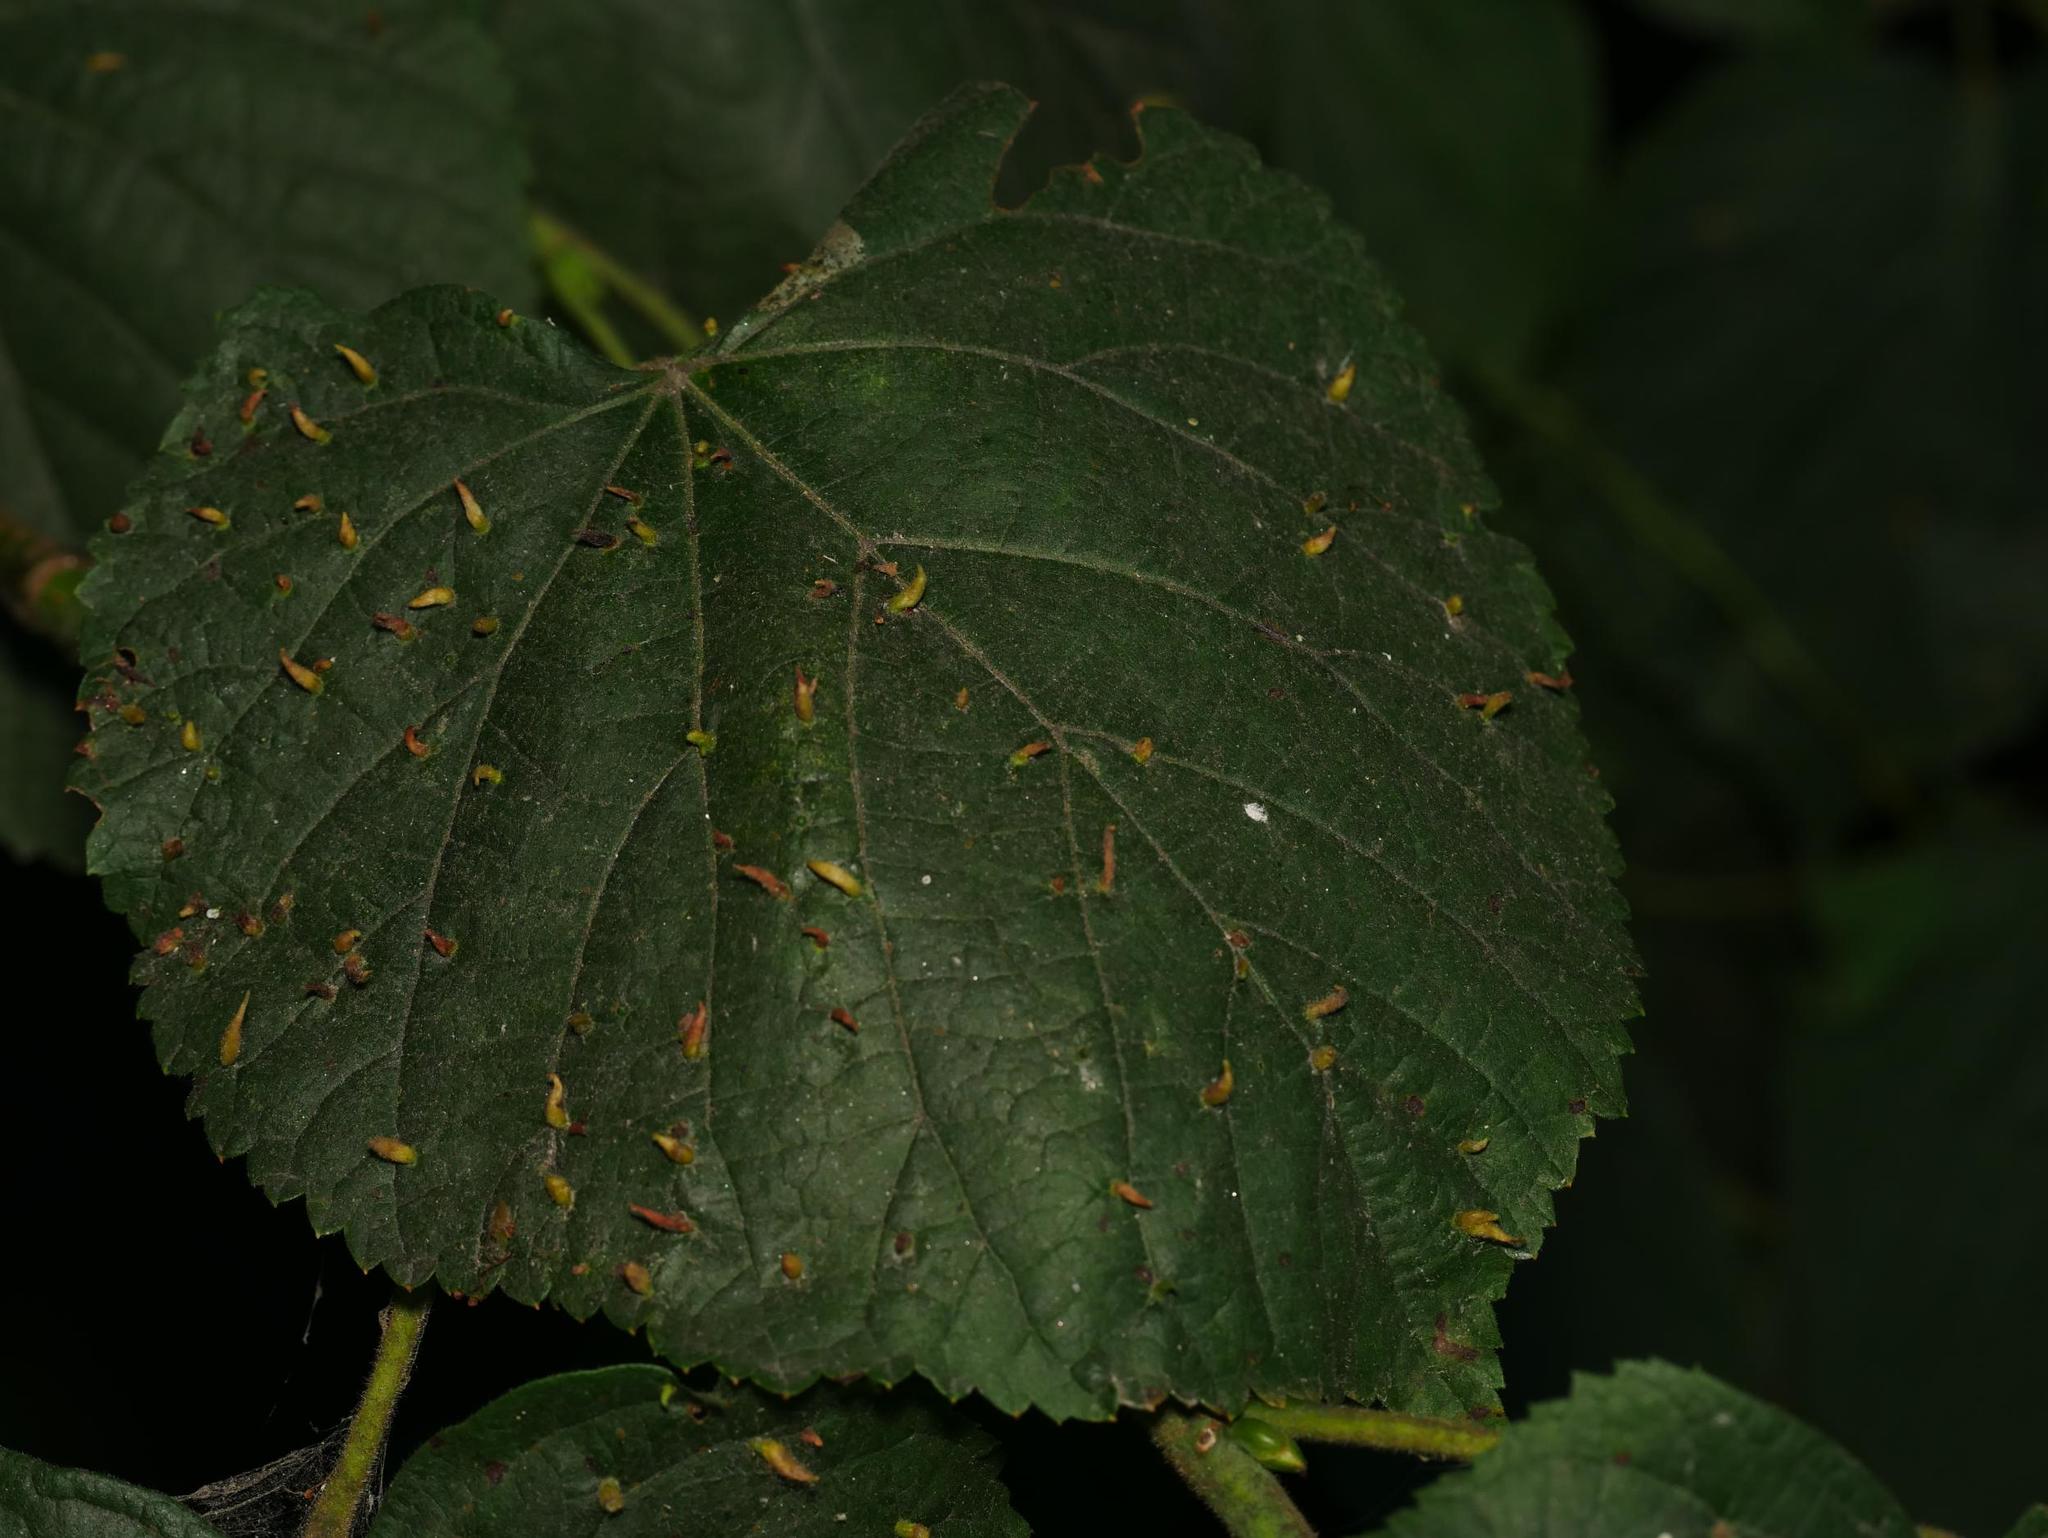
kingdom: Plantae
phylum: Tracheophyta
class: Magnoliopsida
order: Malvales
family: Malvaceae
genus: Tilia
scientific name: Tilia cordata
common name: Small-leaved lime
